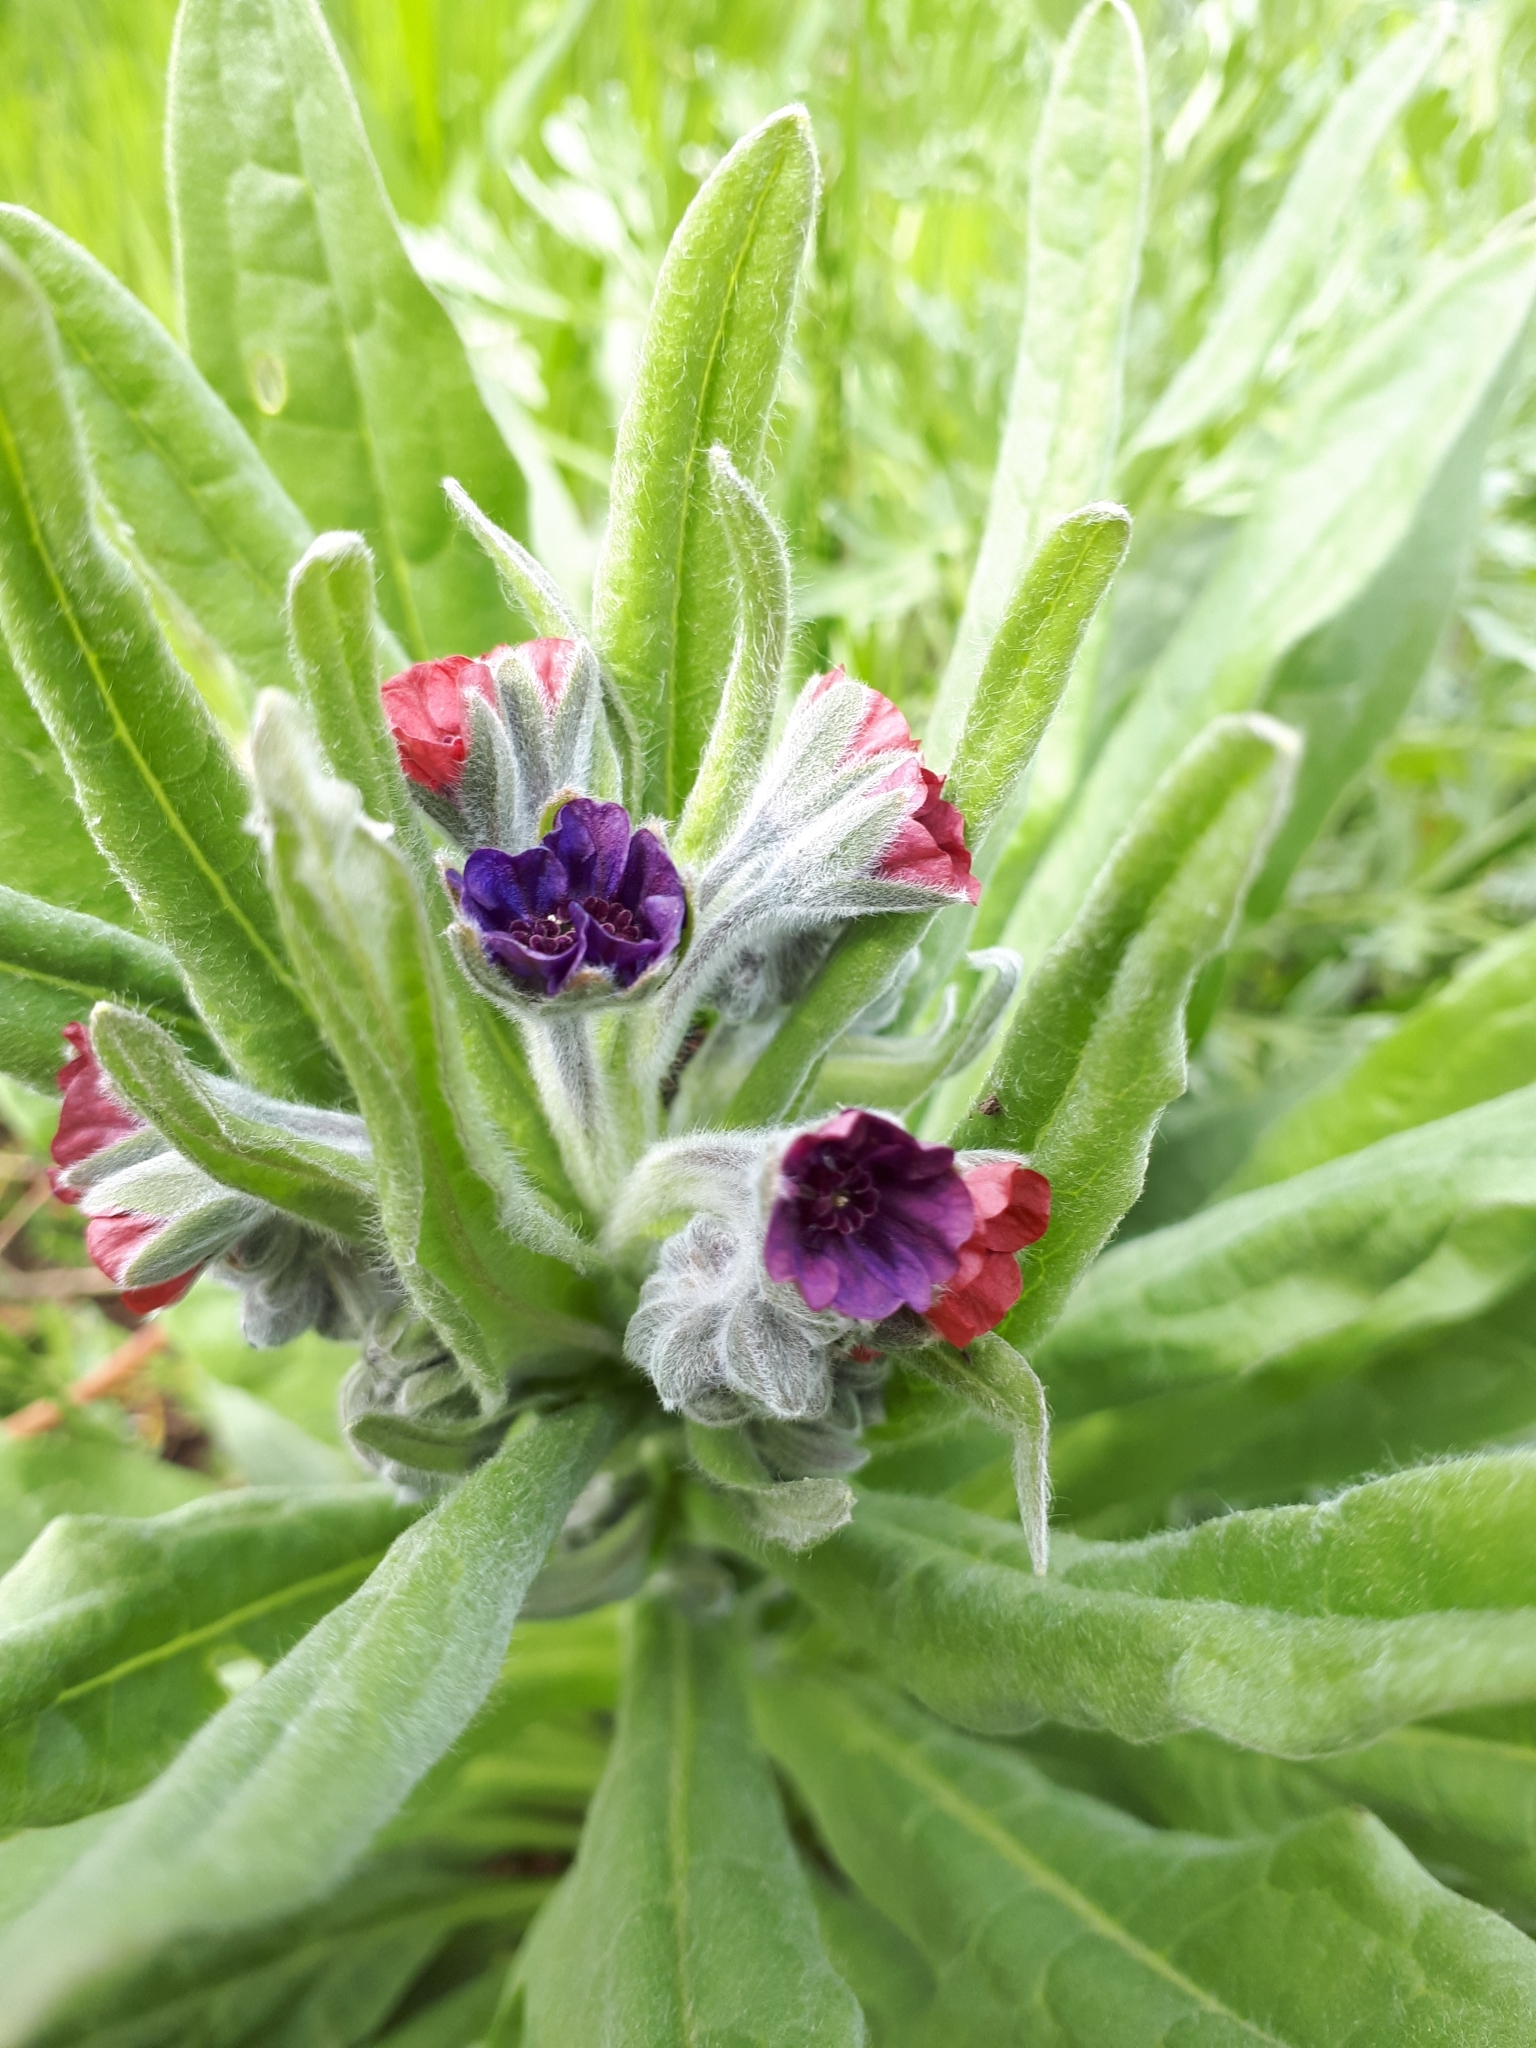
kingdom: Plantae
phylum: Tracheophyta
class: Magnoliopsida
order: Boraginales
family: Boraginaceae
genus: Cynoglossum
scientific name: Cynoglossum officinale
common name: Hound's-tongue
